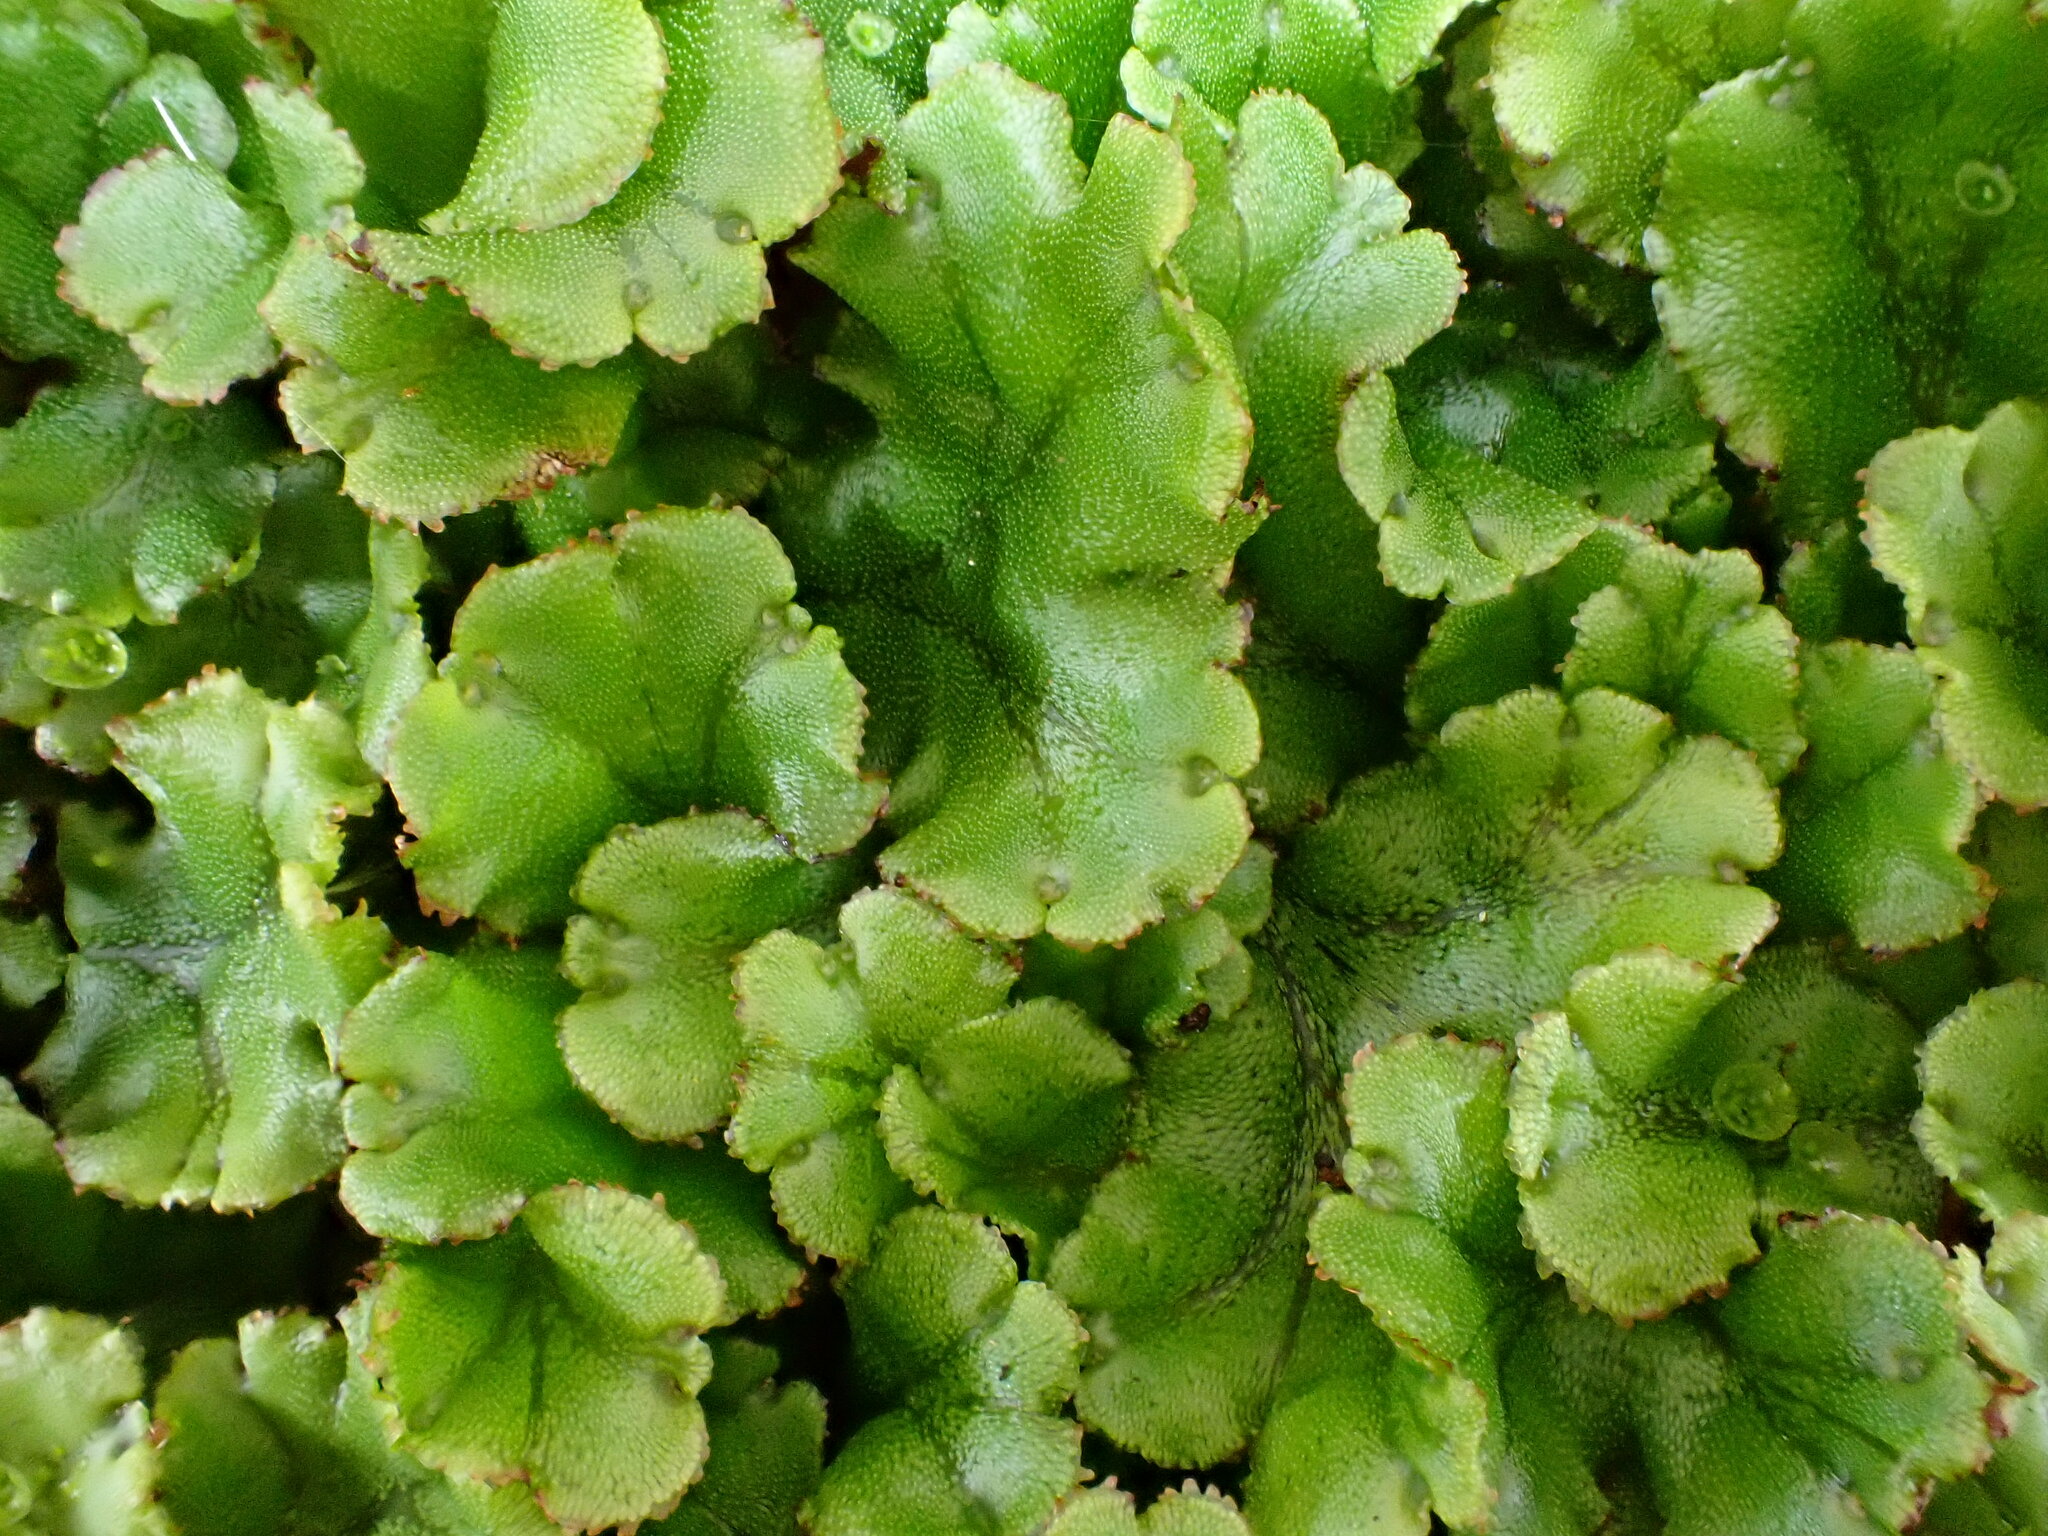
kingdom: Plantae
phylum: Marchantiophyta
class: Marchantiopsida
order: Marchantiales
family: Marchantiaceae
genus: Marchantia
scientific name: Marchantia polymorpha
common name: Common liverwort
